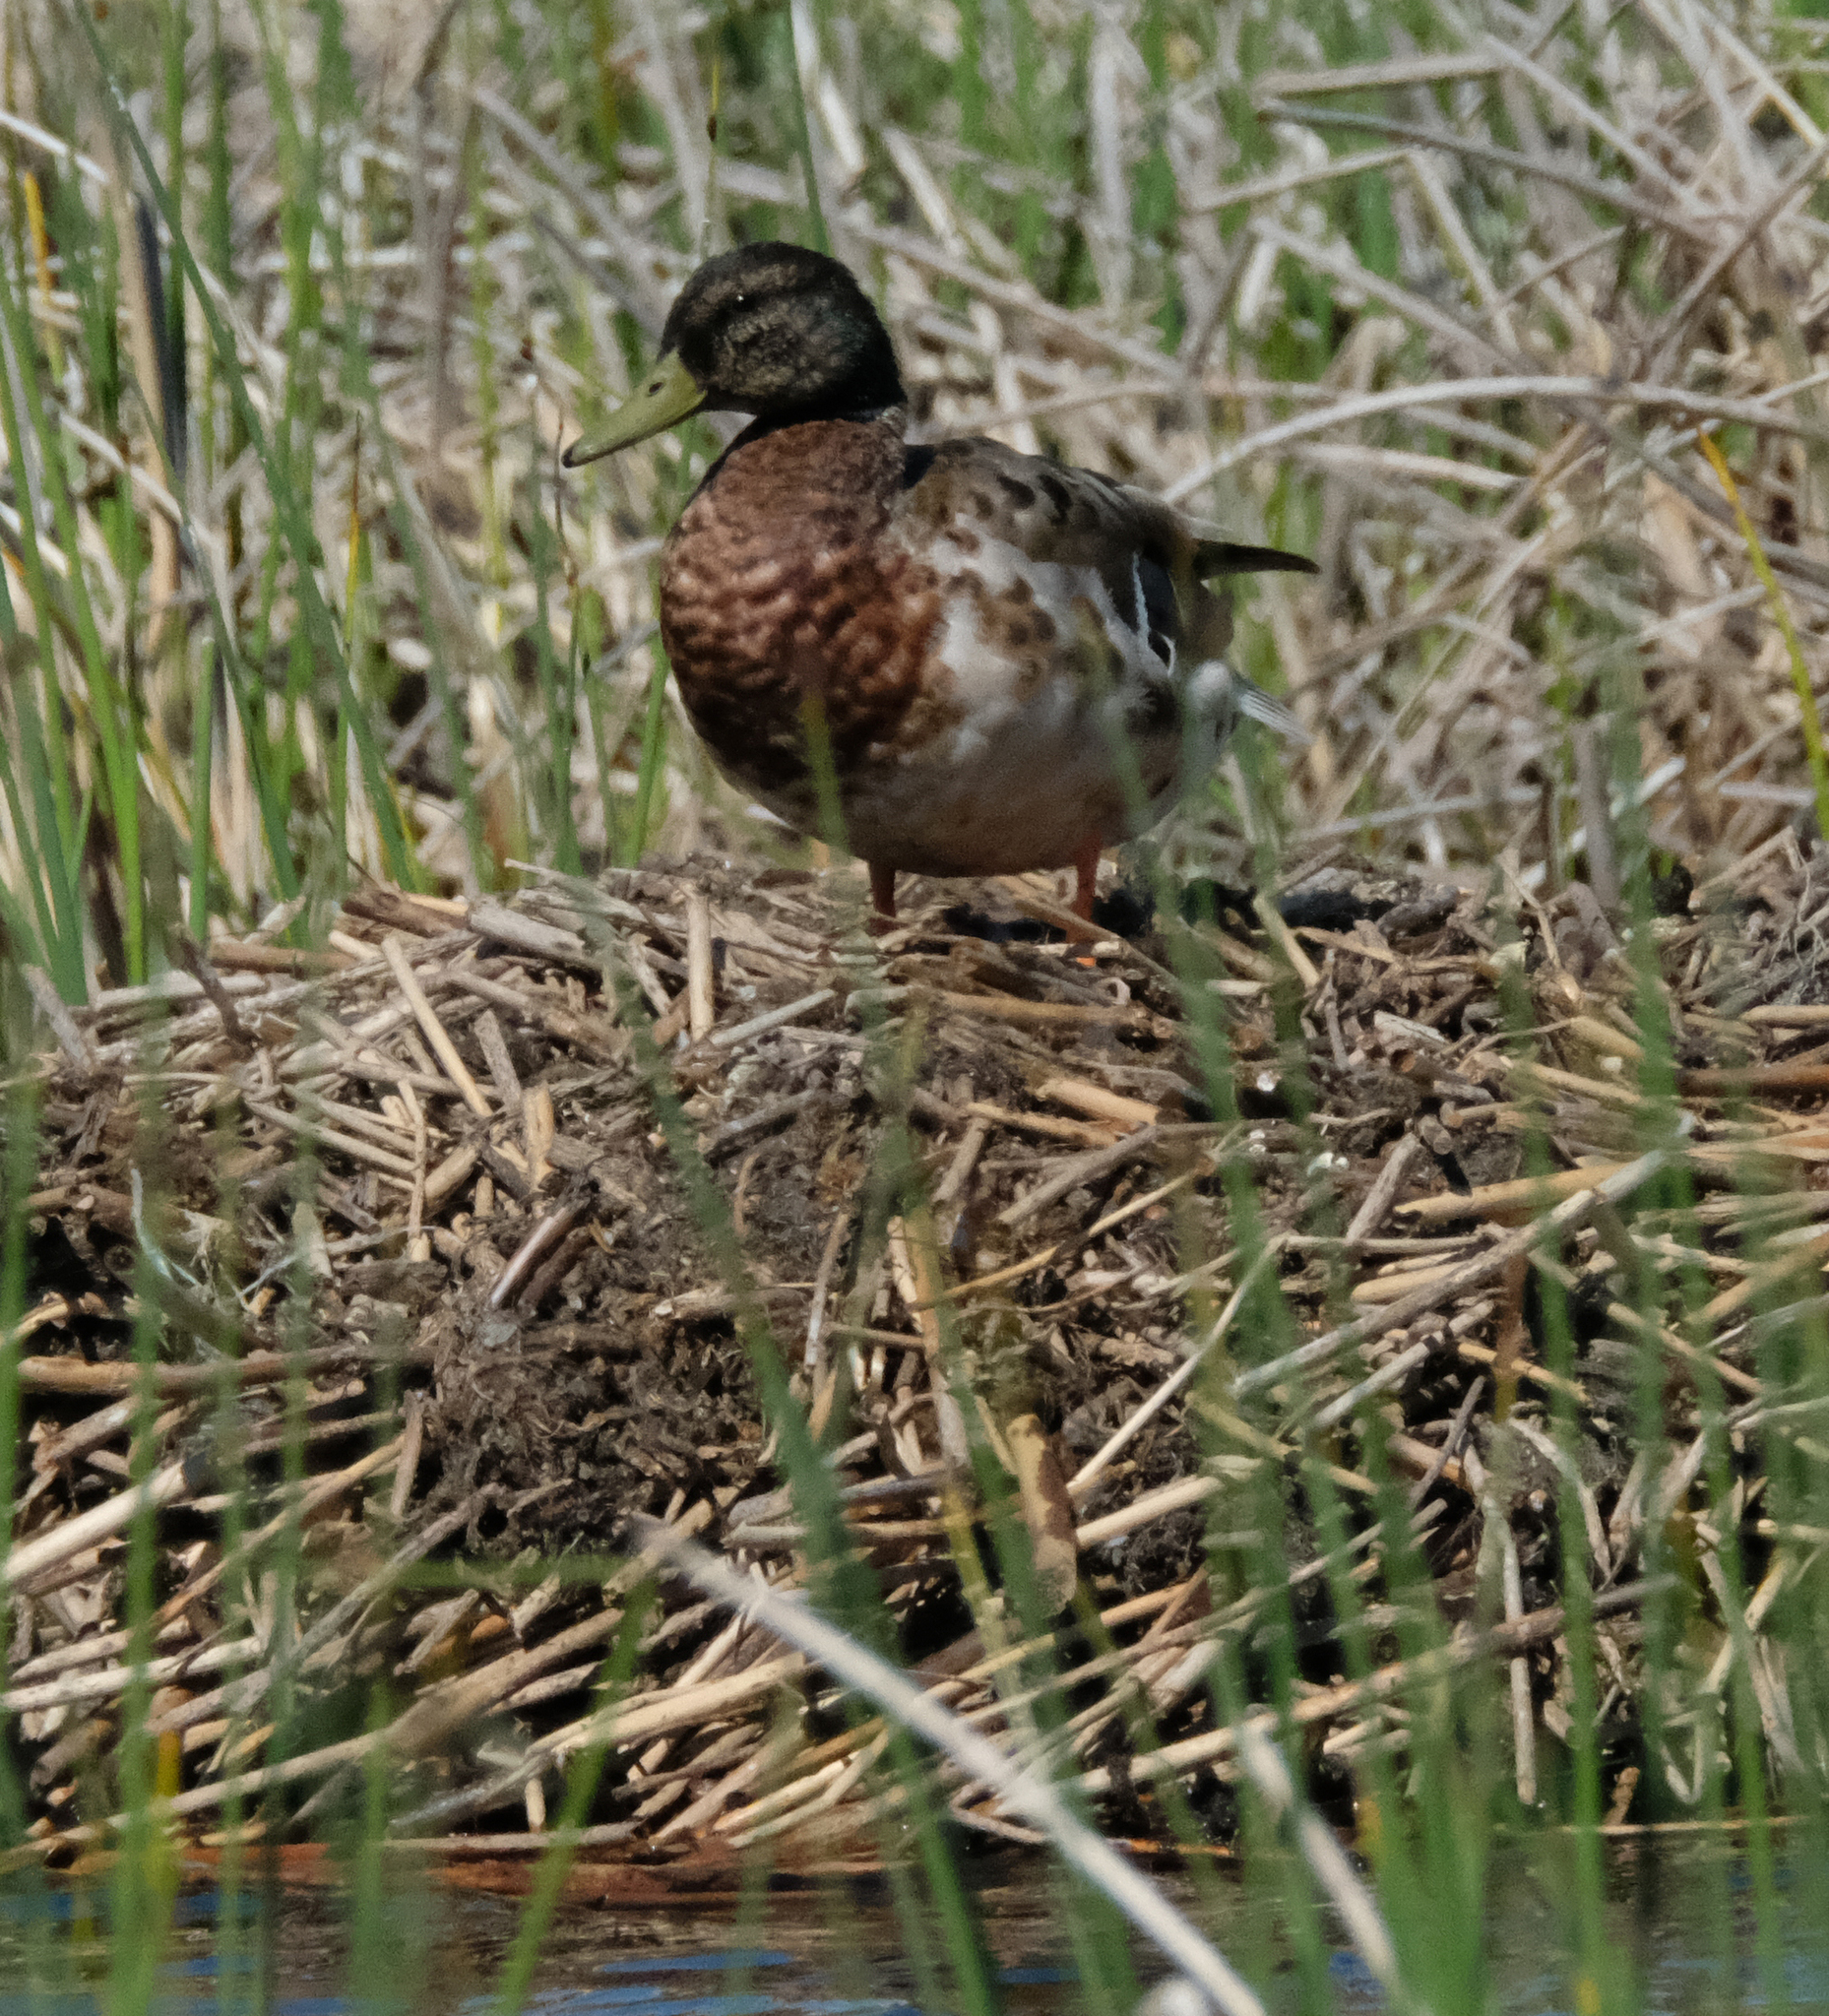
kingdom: Animalia
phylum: Chordata
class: Aves
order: Anseriformes
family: Anatidae
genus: Anas
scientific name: Anas platyrhynchos
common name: Mallard
